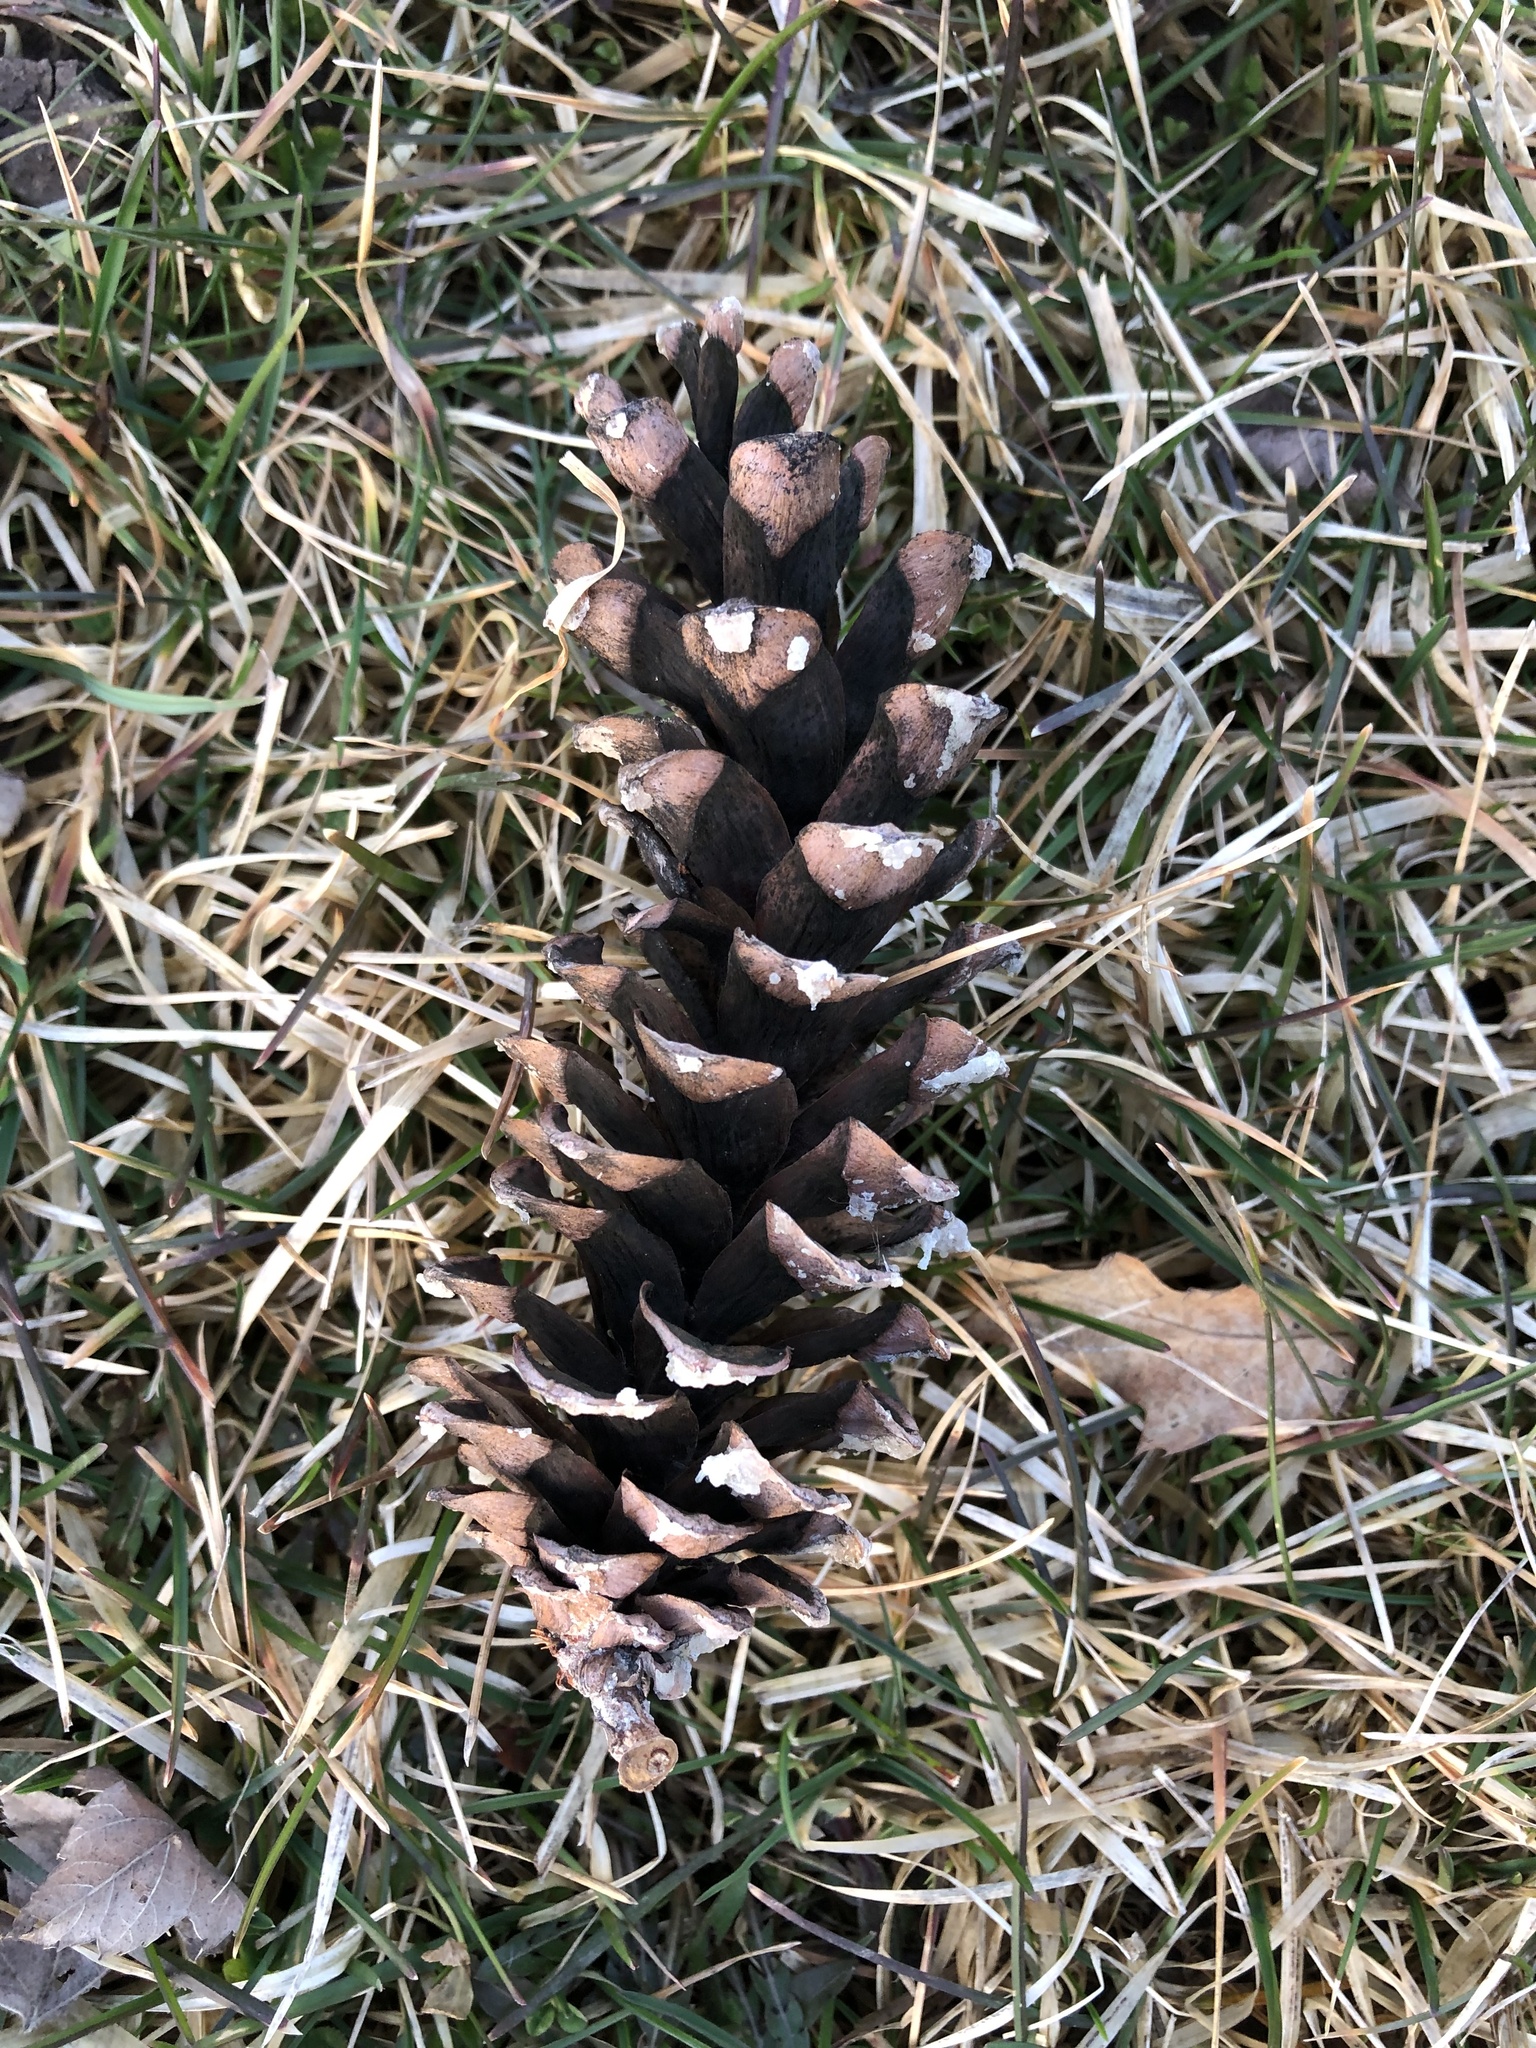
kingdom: Plantae
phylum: Tracheophyta
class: Pinopsida
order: Pinales
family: Pinaceae
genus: Pinus
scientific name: Pinus strobus
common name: Weymouth pine
